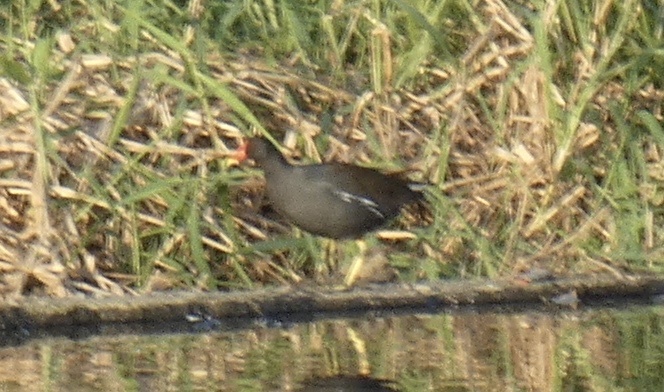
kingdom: Animalia
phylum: Chordata
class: Aves
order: Gruiformes
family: Rallidae
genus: Gallinula
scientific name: Gallinula chloropus
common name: Common moorhen
